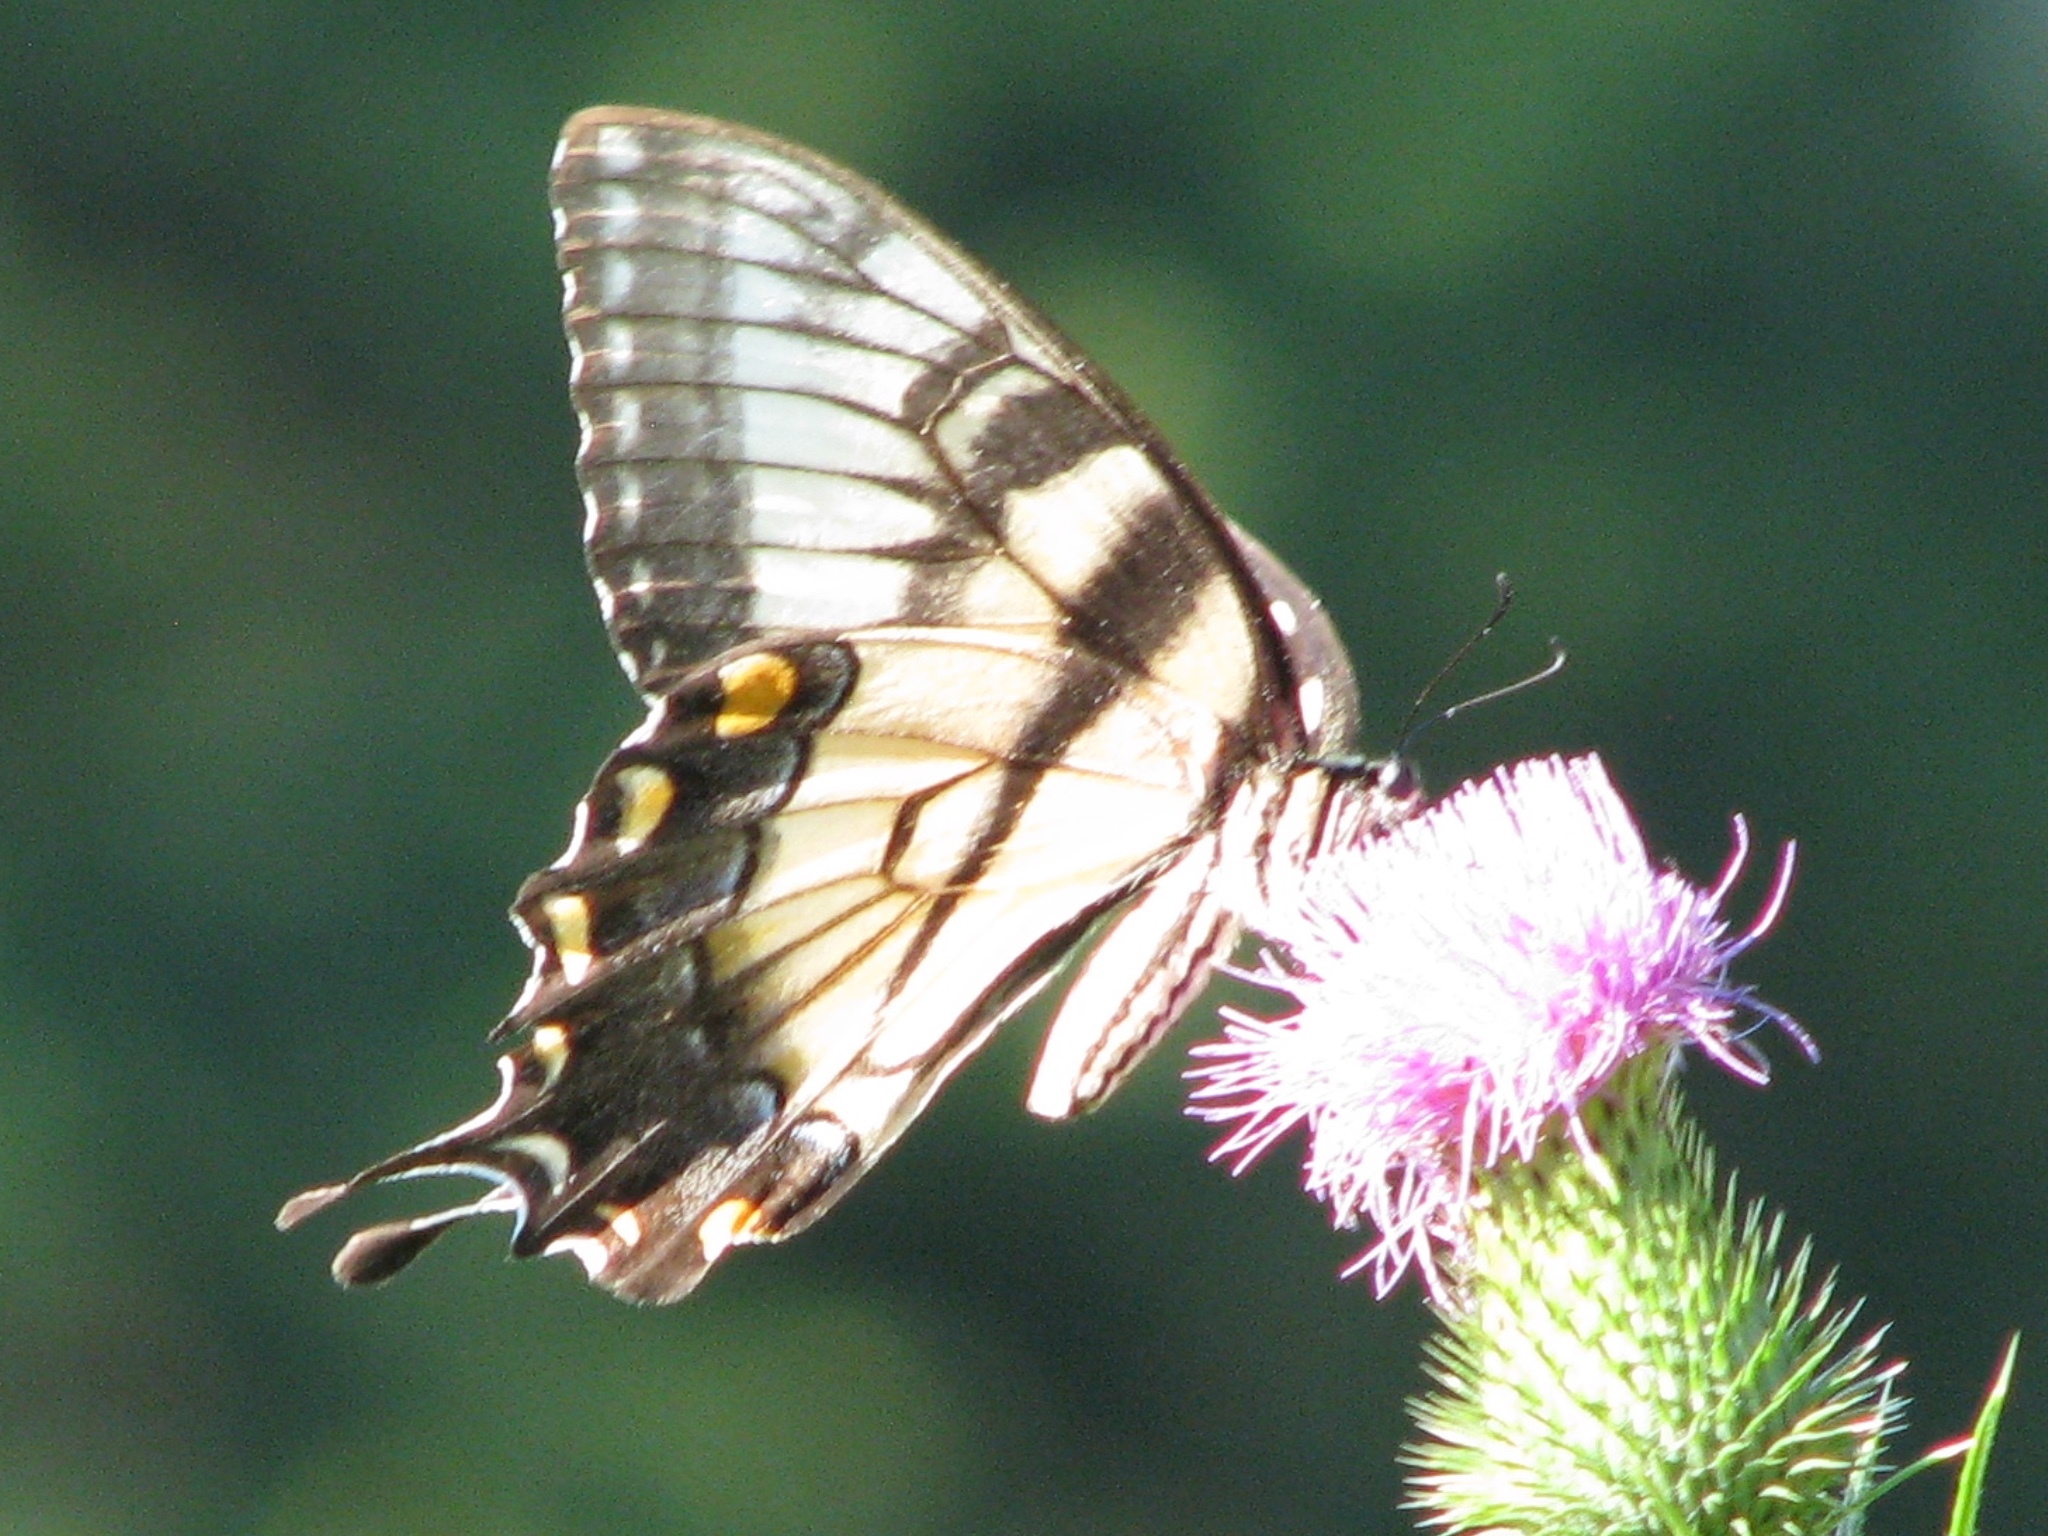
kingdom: Animalia
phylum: Arthropoda
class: Insecta
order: Lepidoptera
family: Papilionidae
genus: Papilio
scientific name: Papilio glaucus
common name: Tiger swallowtail
